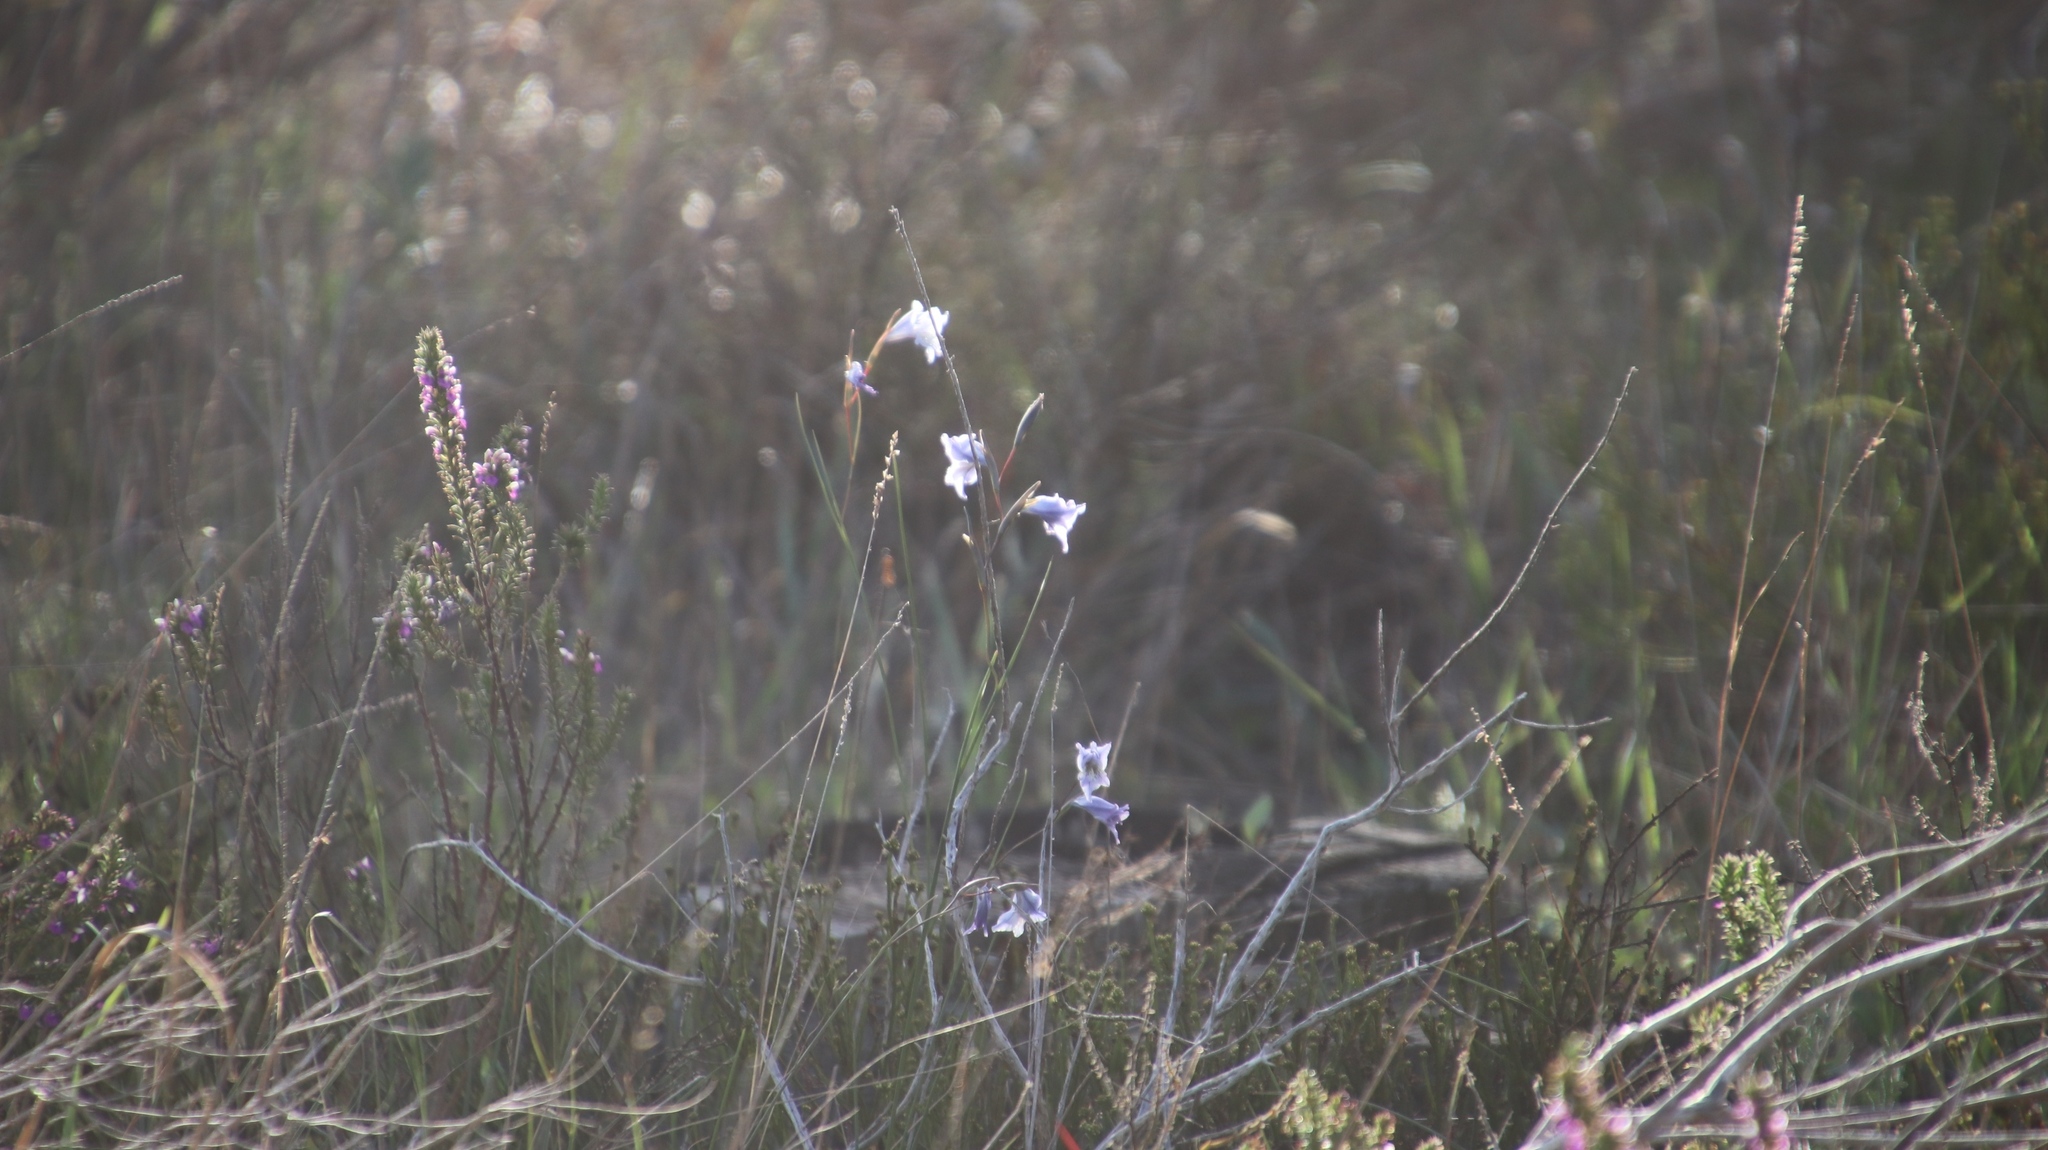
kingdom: Plantae
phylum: Tracheophyta
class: Liliopsida
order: Asparagales
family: Iridaceae
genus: Gladiolus
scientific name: Gladiolus gracilis
